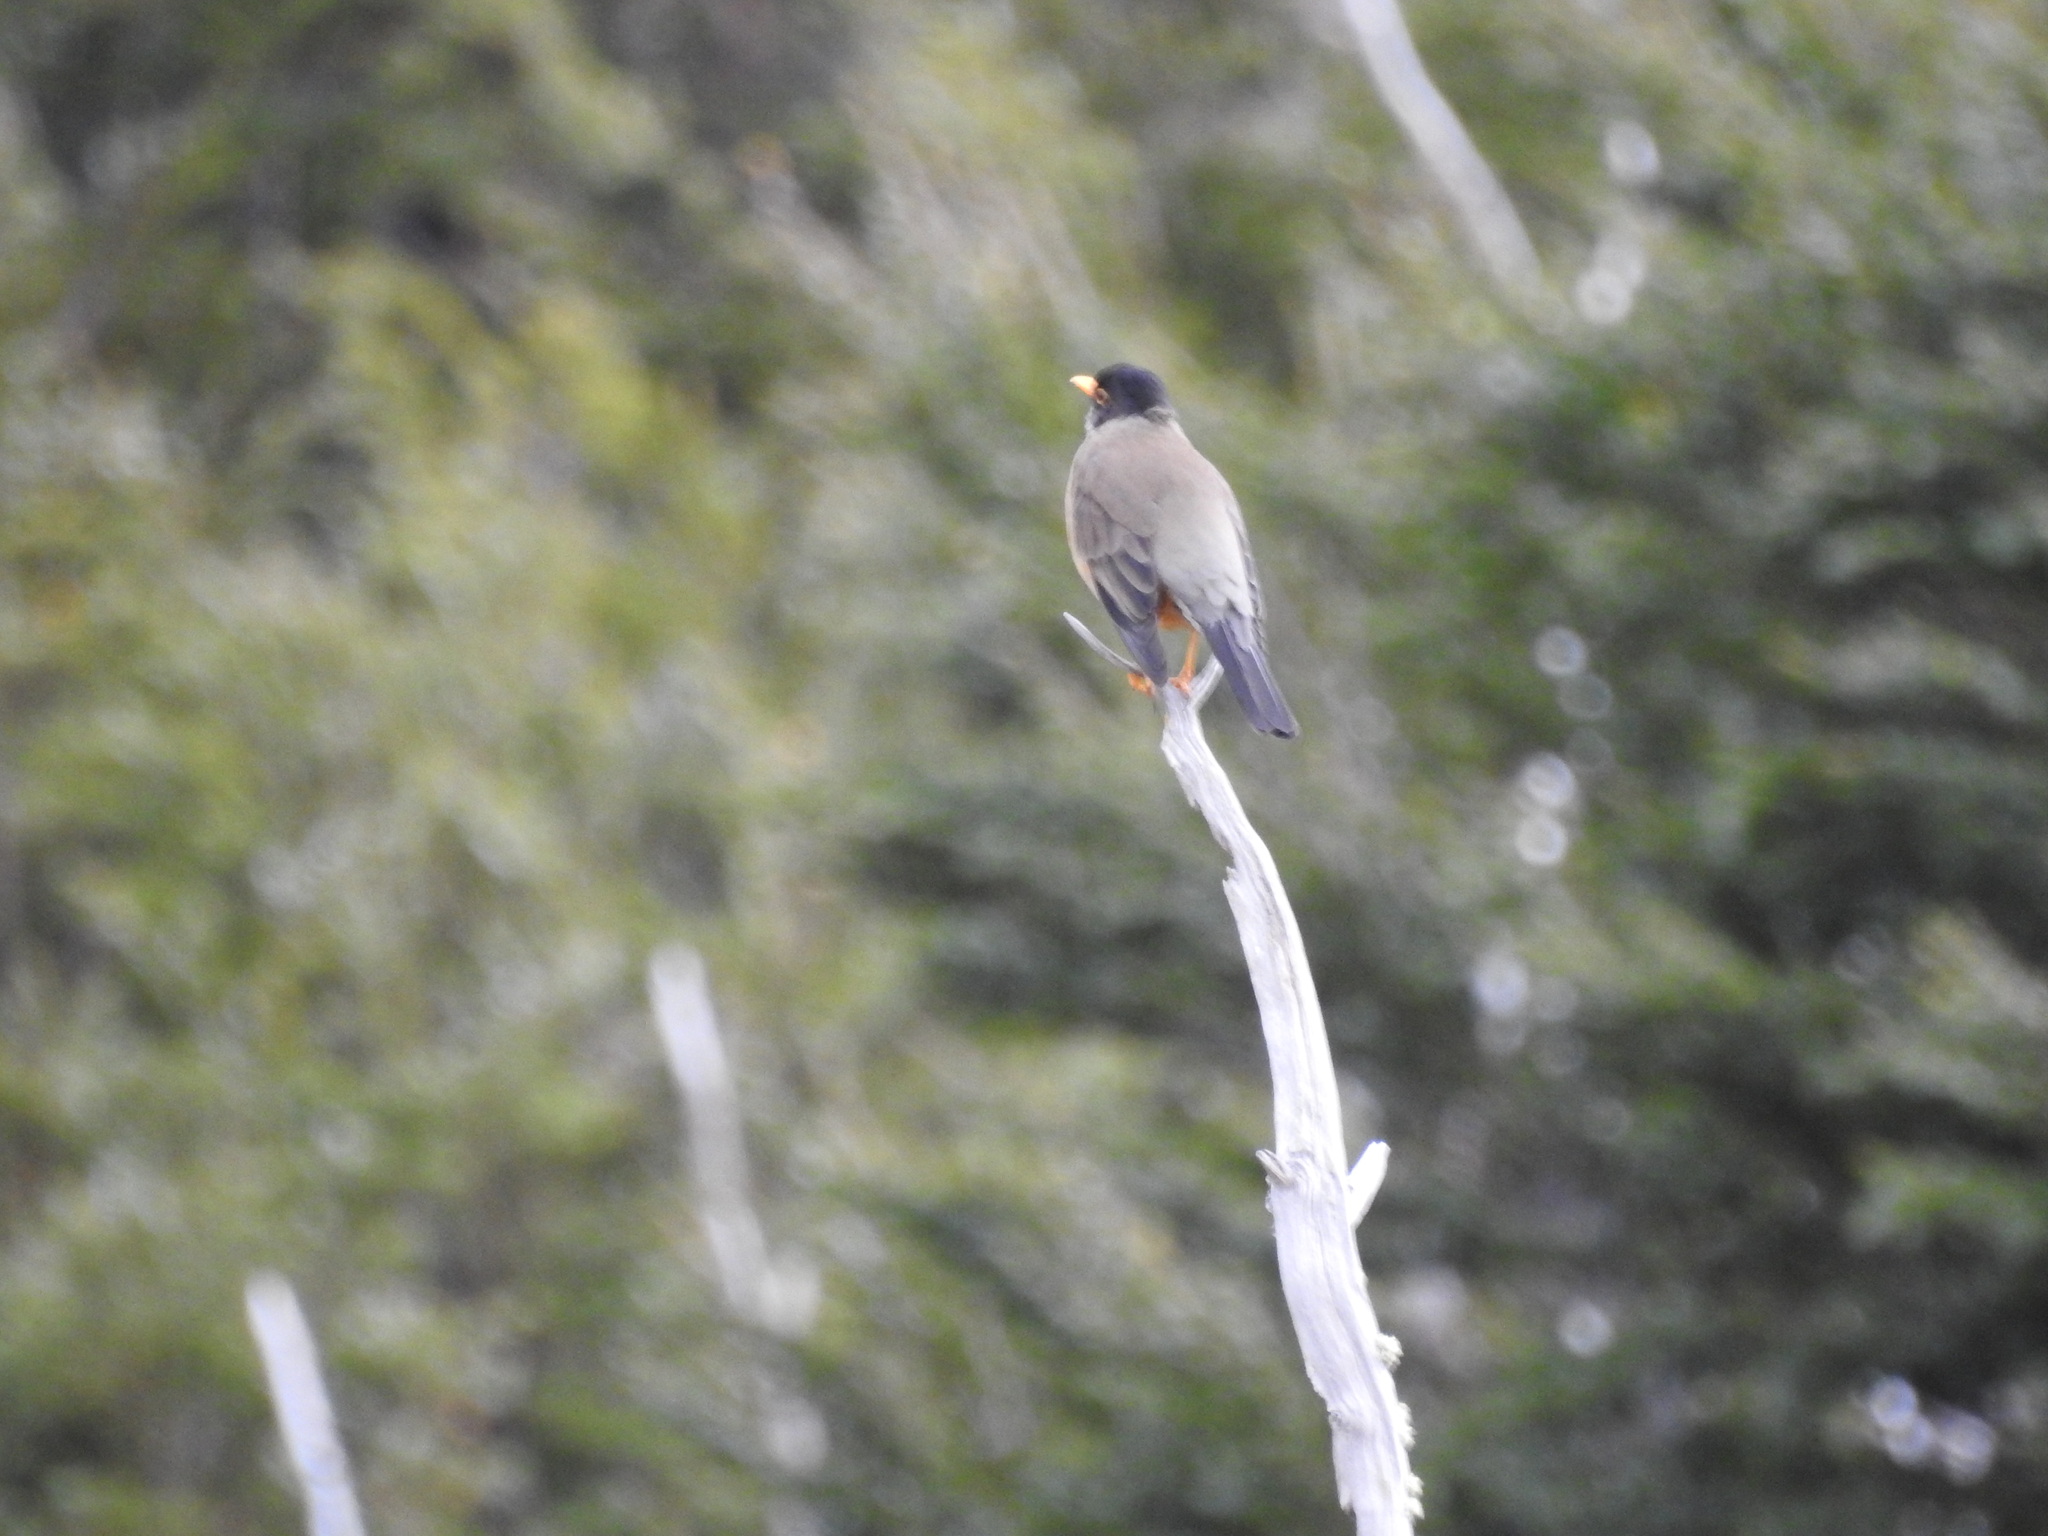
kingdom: Animalia
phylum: Chordata
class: Aves
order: Passeriformes
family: Turdidae
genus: Turdus
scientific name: Turdus falcklandii
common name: Austral thrush
